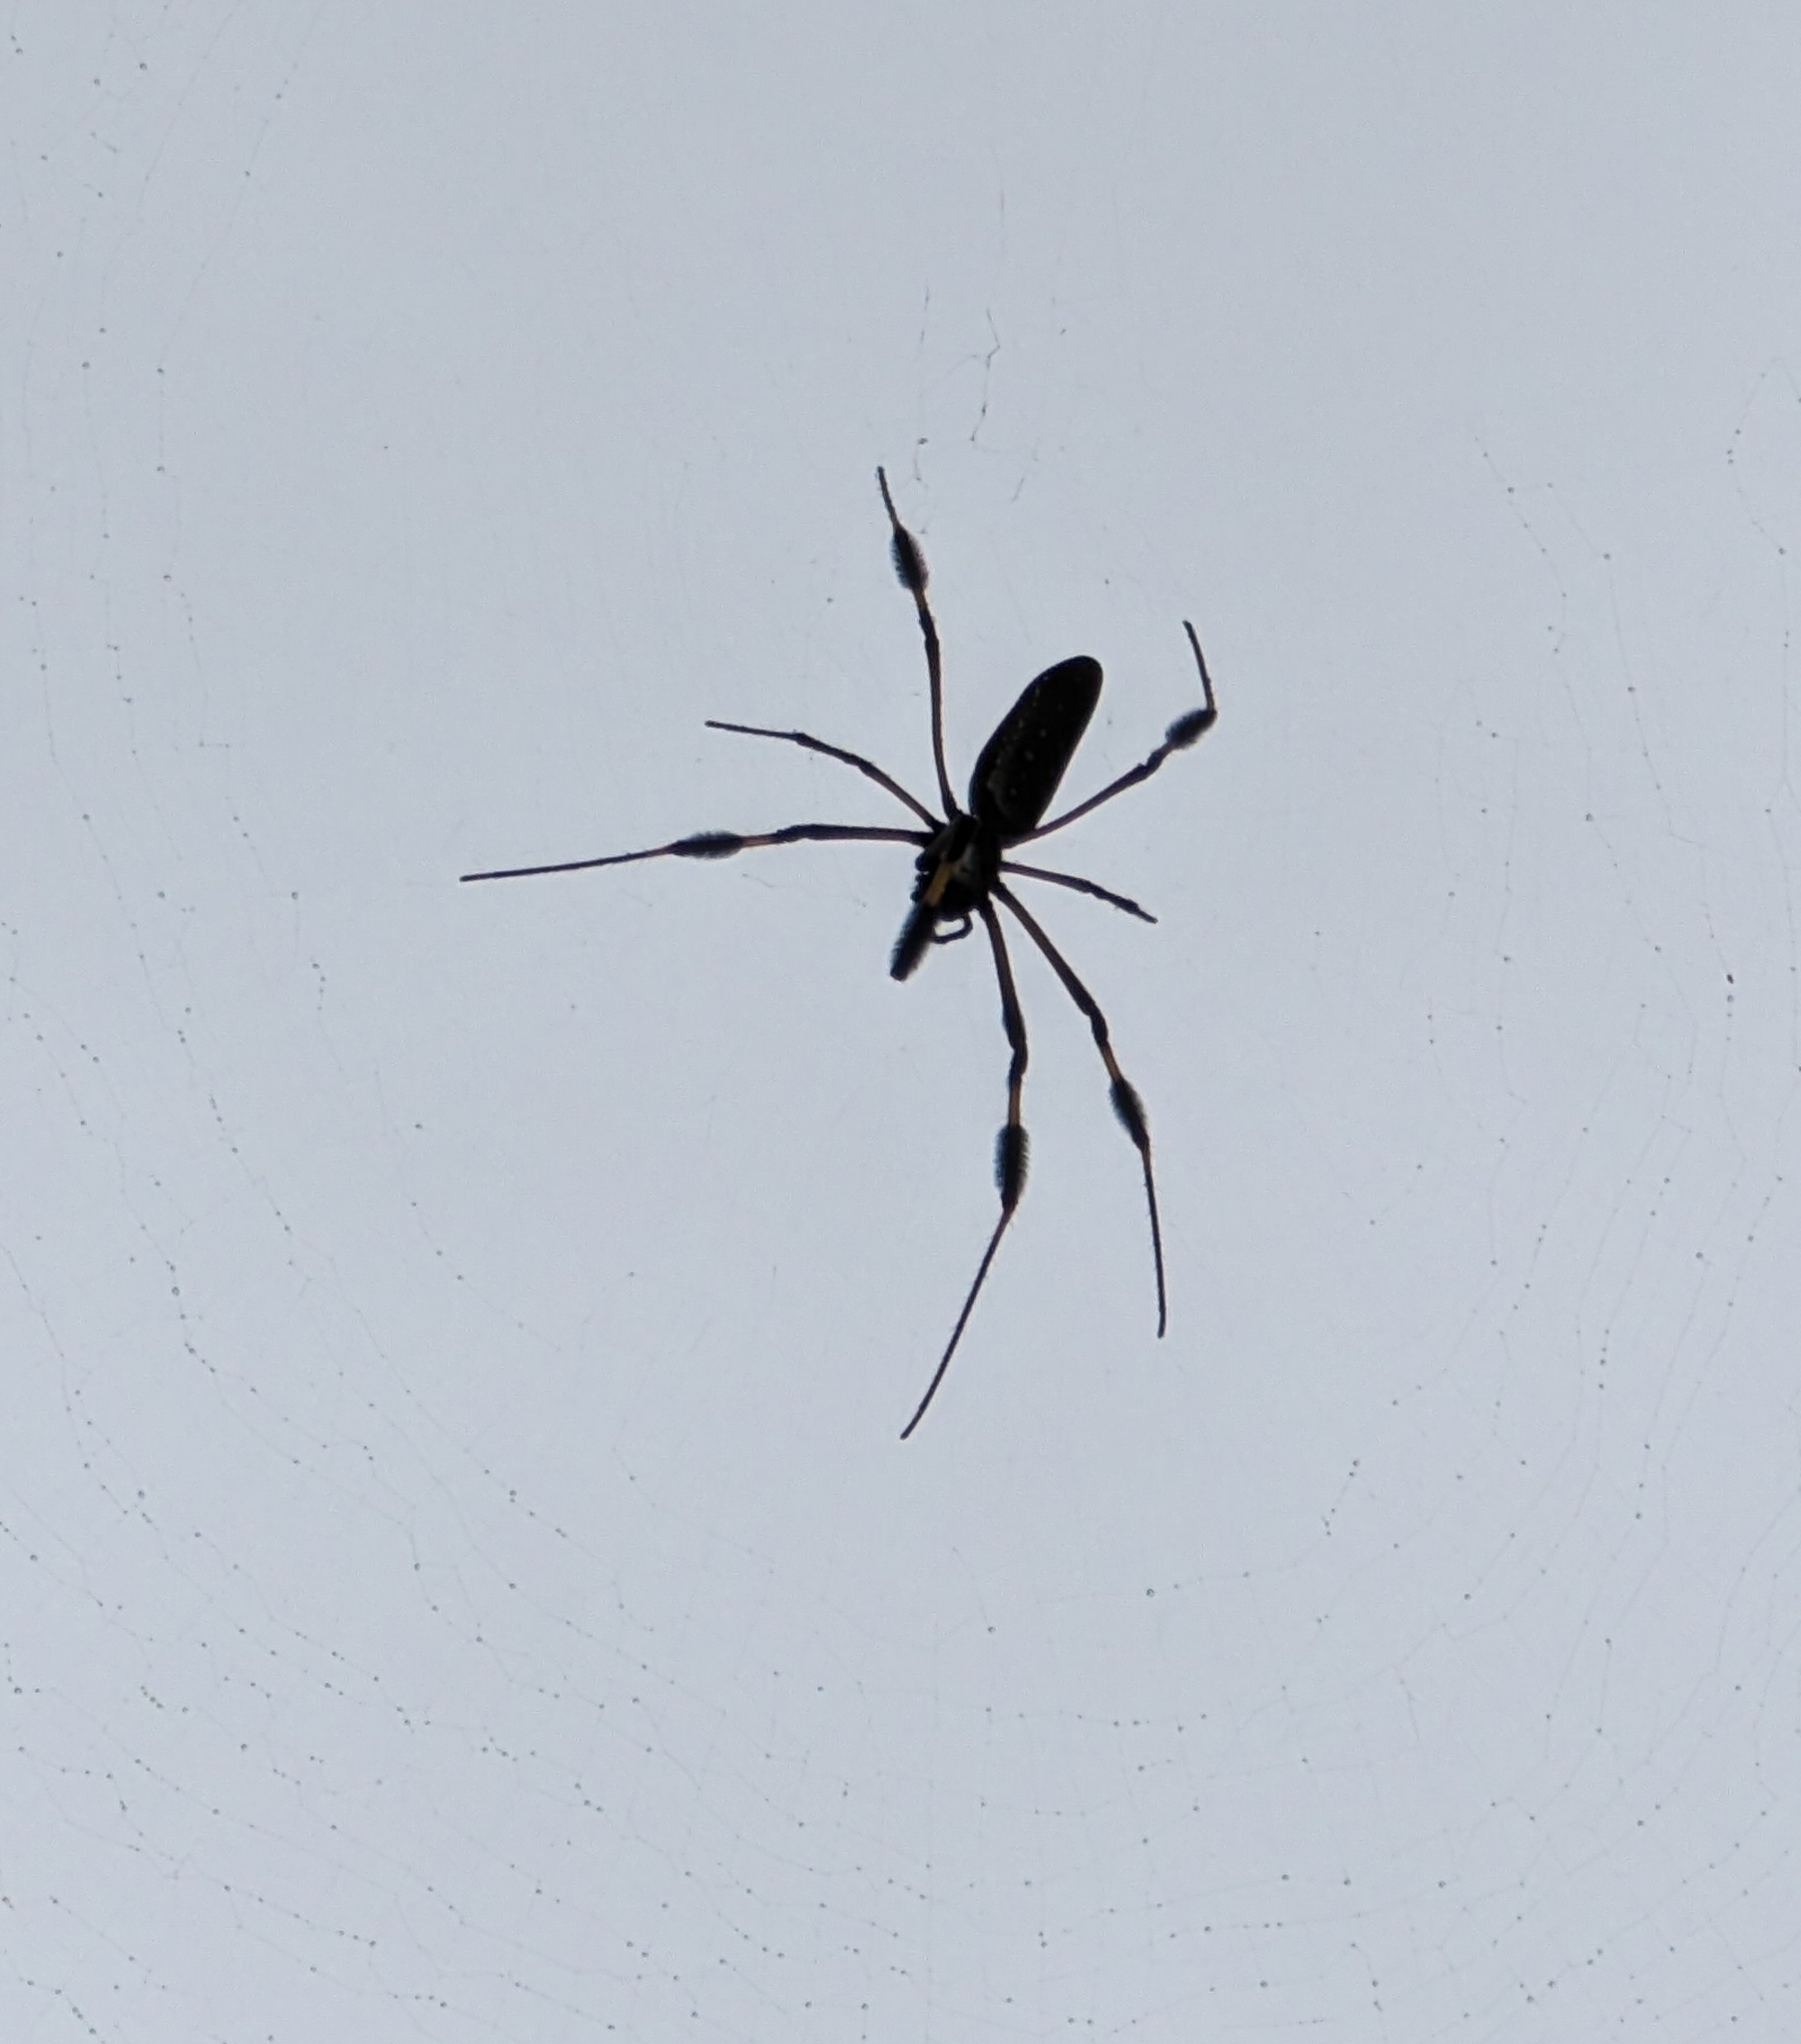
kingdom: Animalia
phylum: Arthropoda
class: Arachnida
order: Araneae
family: Araneidae
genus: Trichonephila
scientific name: Trichonephila clavipes
